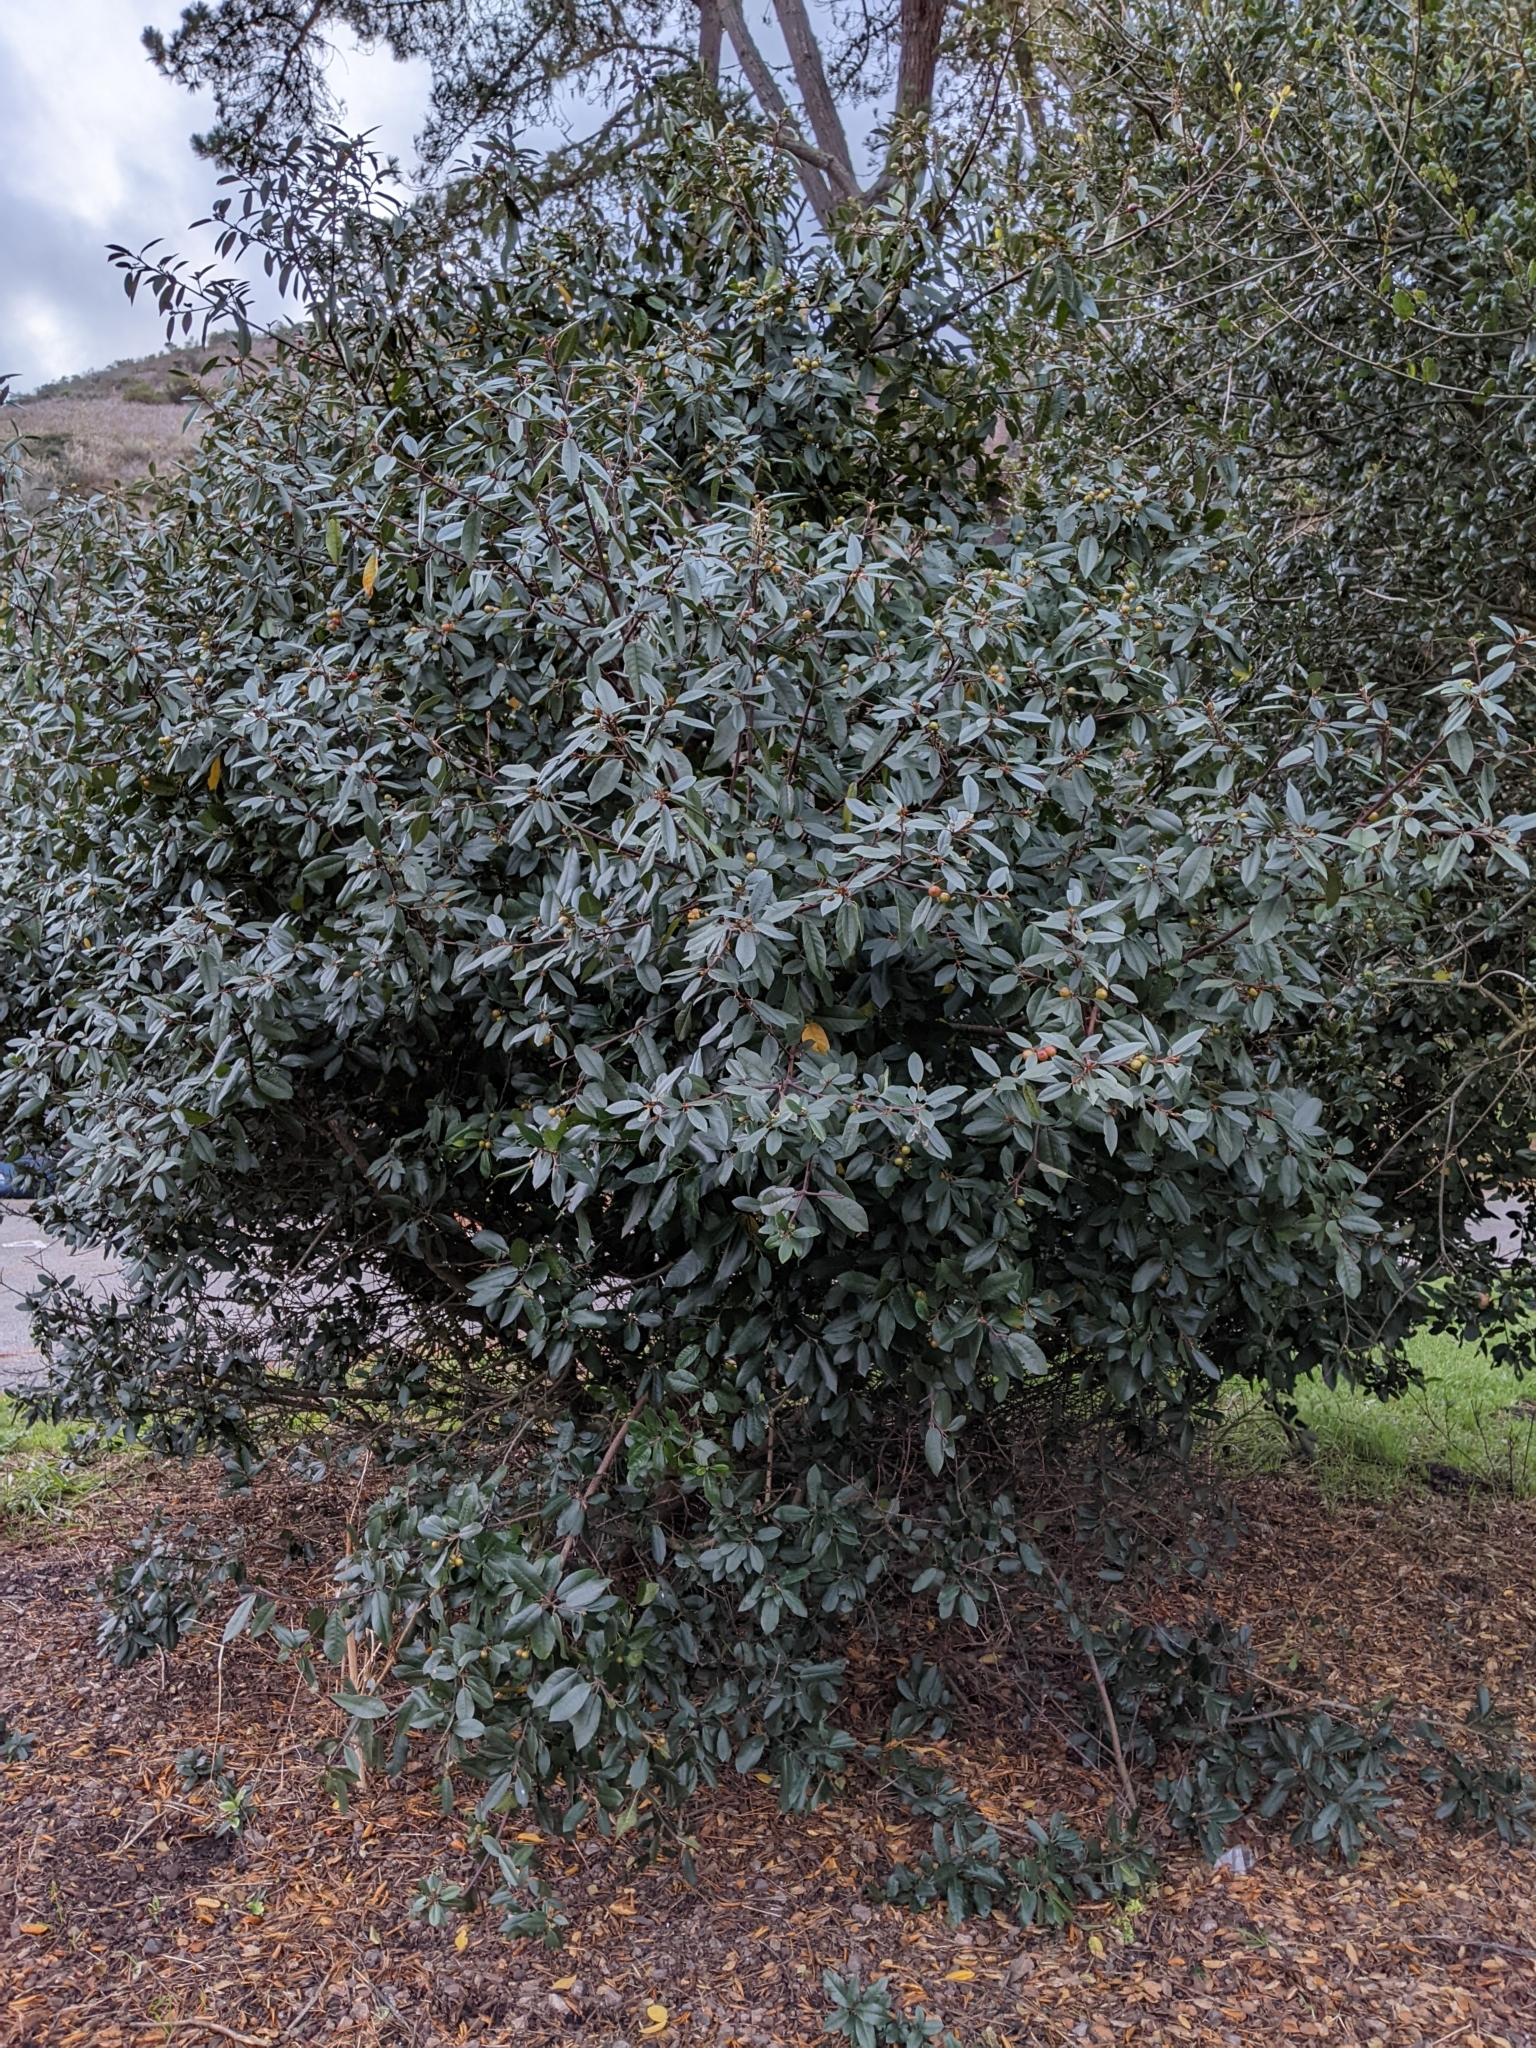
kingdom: Plantae
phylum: Tracheophyta
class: Magnoliopsida
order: Rosales
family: Rhamnaceae
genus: Frangula
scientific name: Frangula californica
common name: California buckthorn
